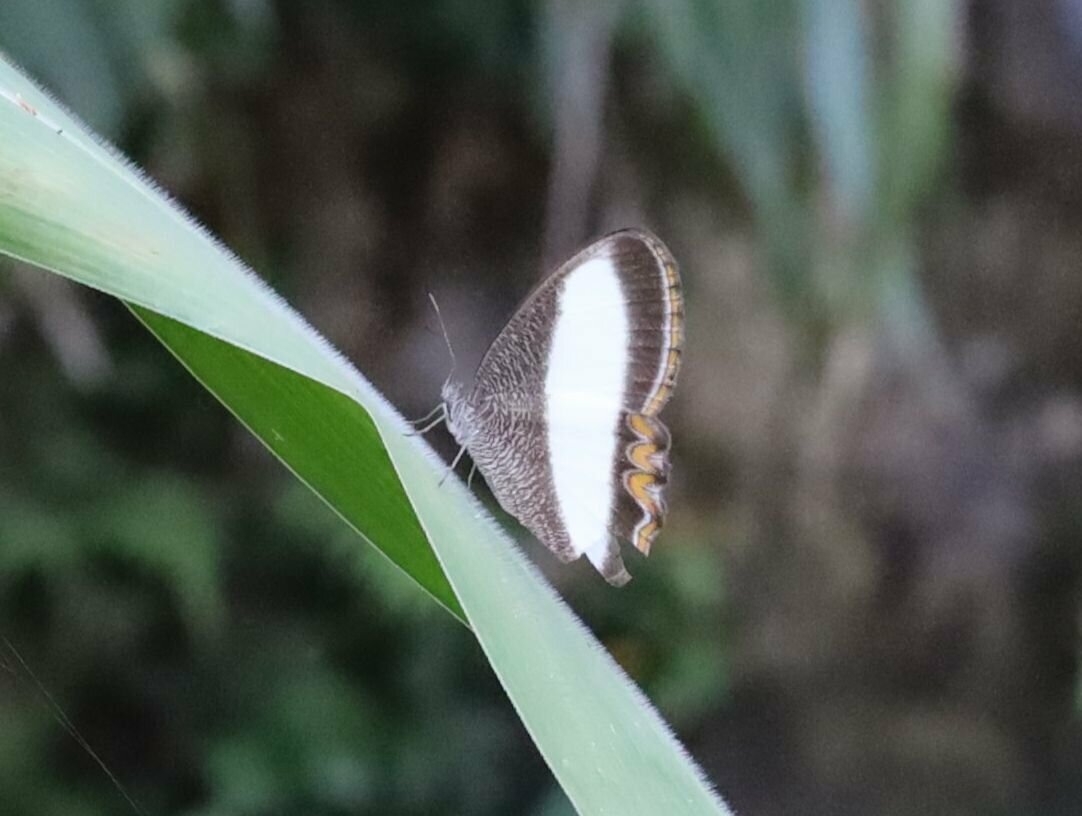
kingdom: Animalia
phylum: Arthropoda
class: Insecta
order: Lepidoptera
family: Nymphalidae
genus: Oressinoma
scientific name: Oressinoma typhla
